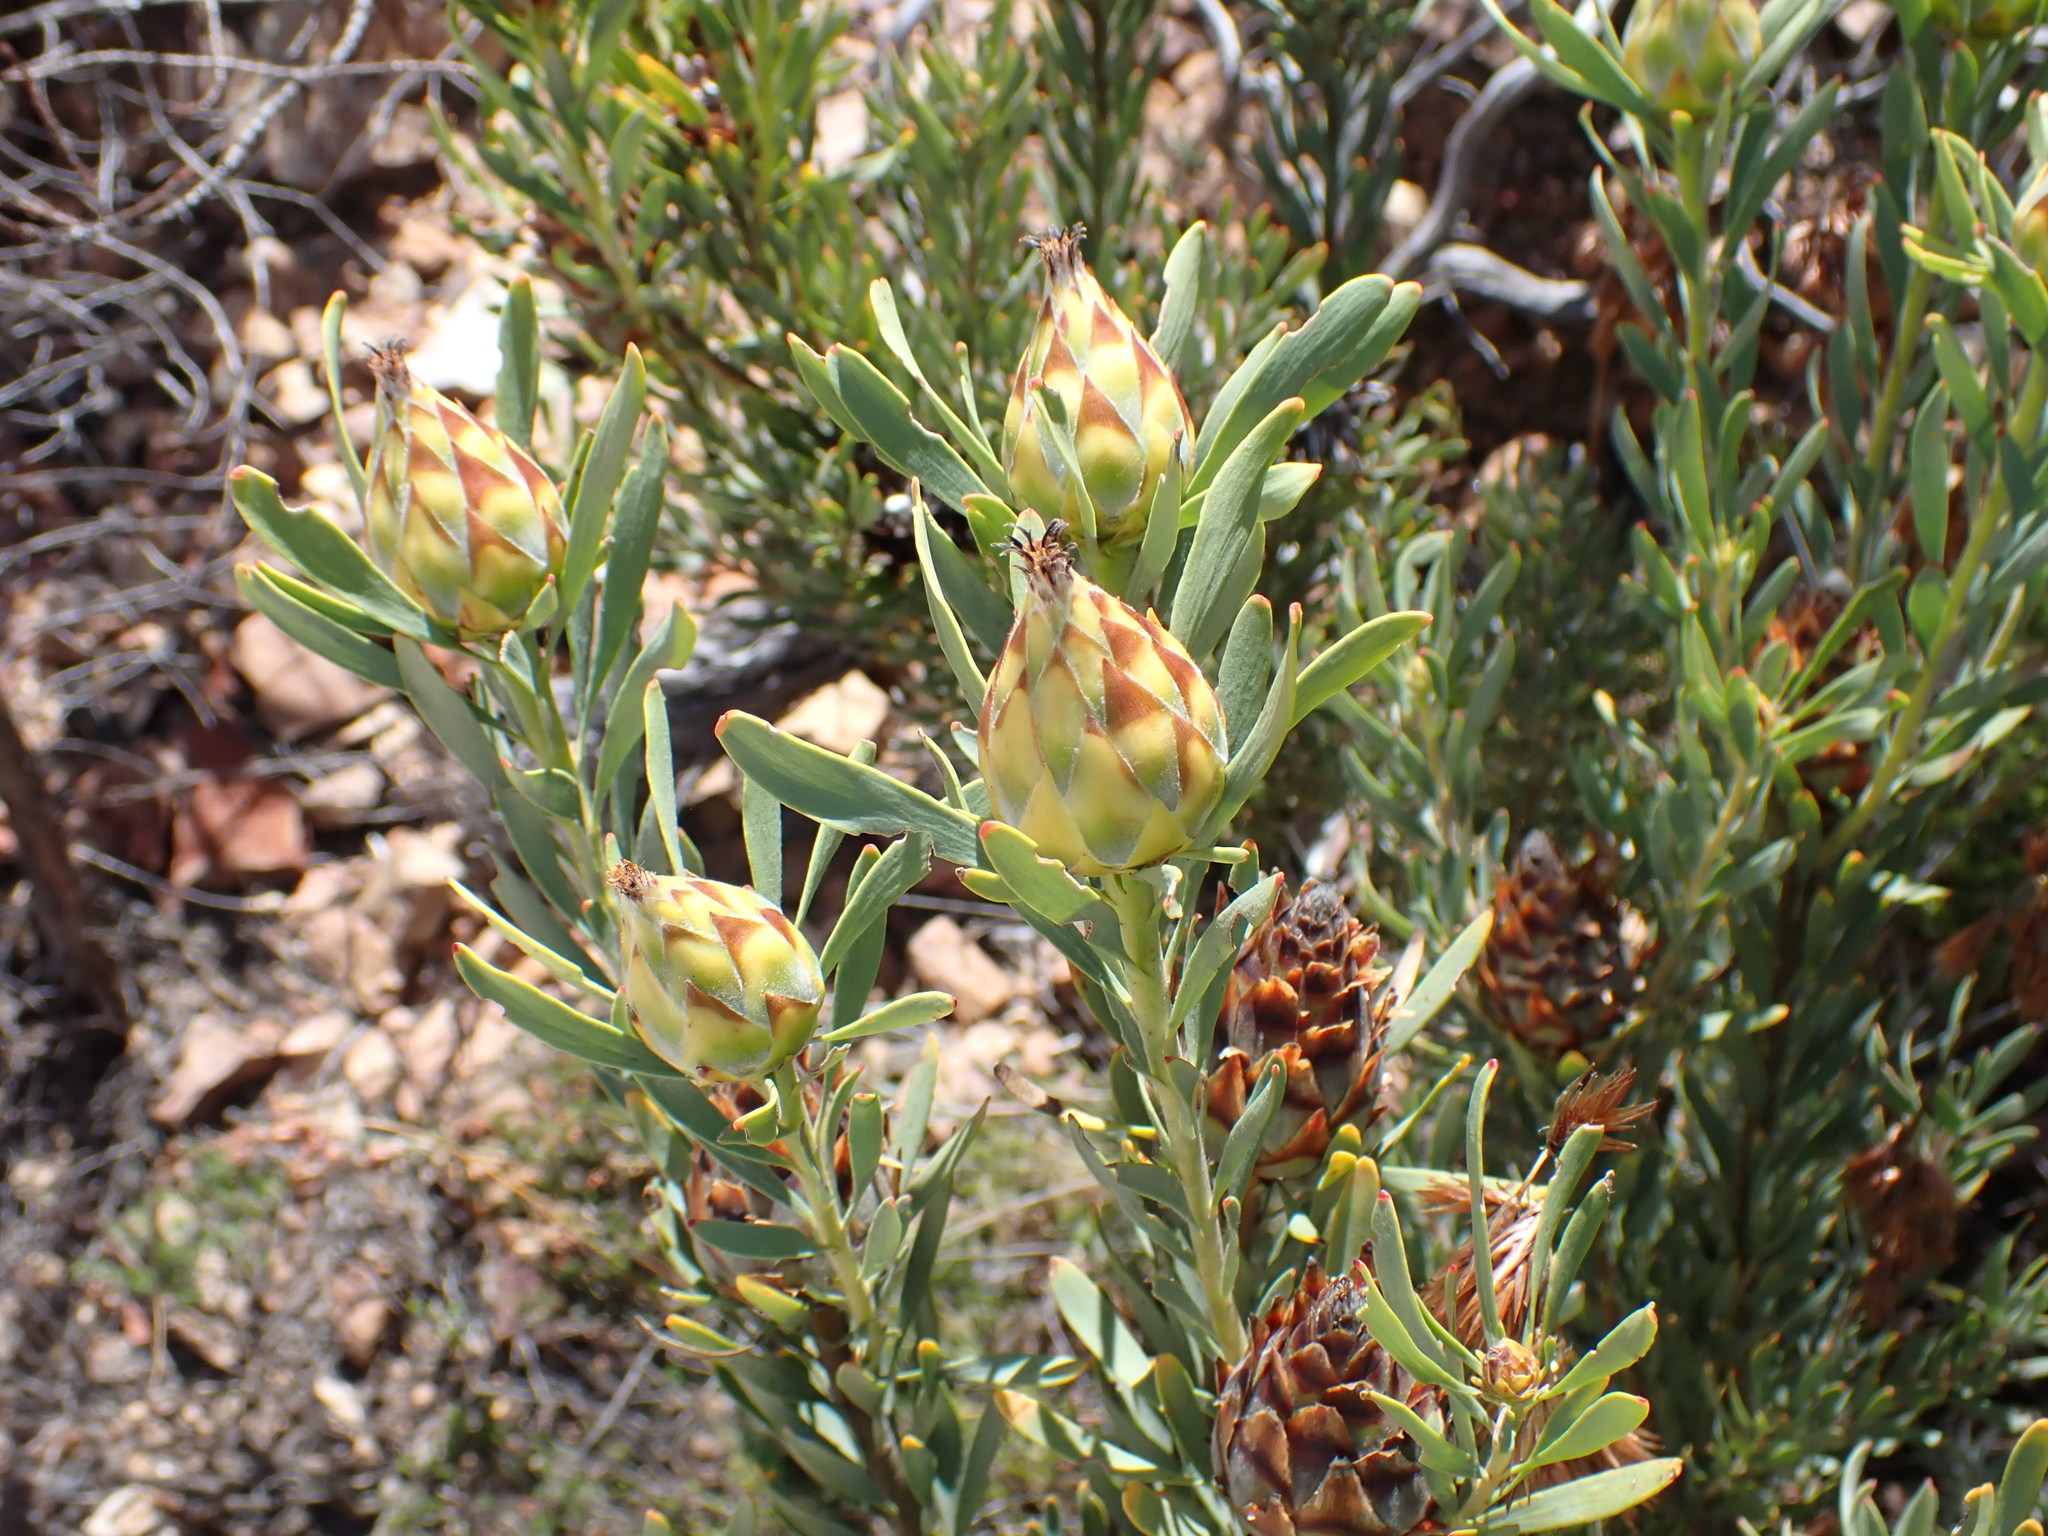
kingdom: Plantae
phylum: Tracheophyta
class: Magnoliopsida
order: Proteales
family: Proteaceae
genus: Leucadendron
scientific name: Leucadendron rubrum
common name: Spinning top
